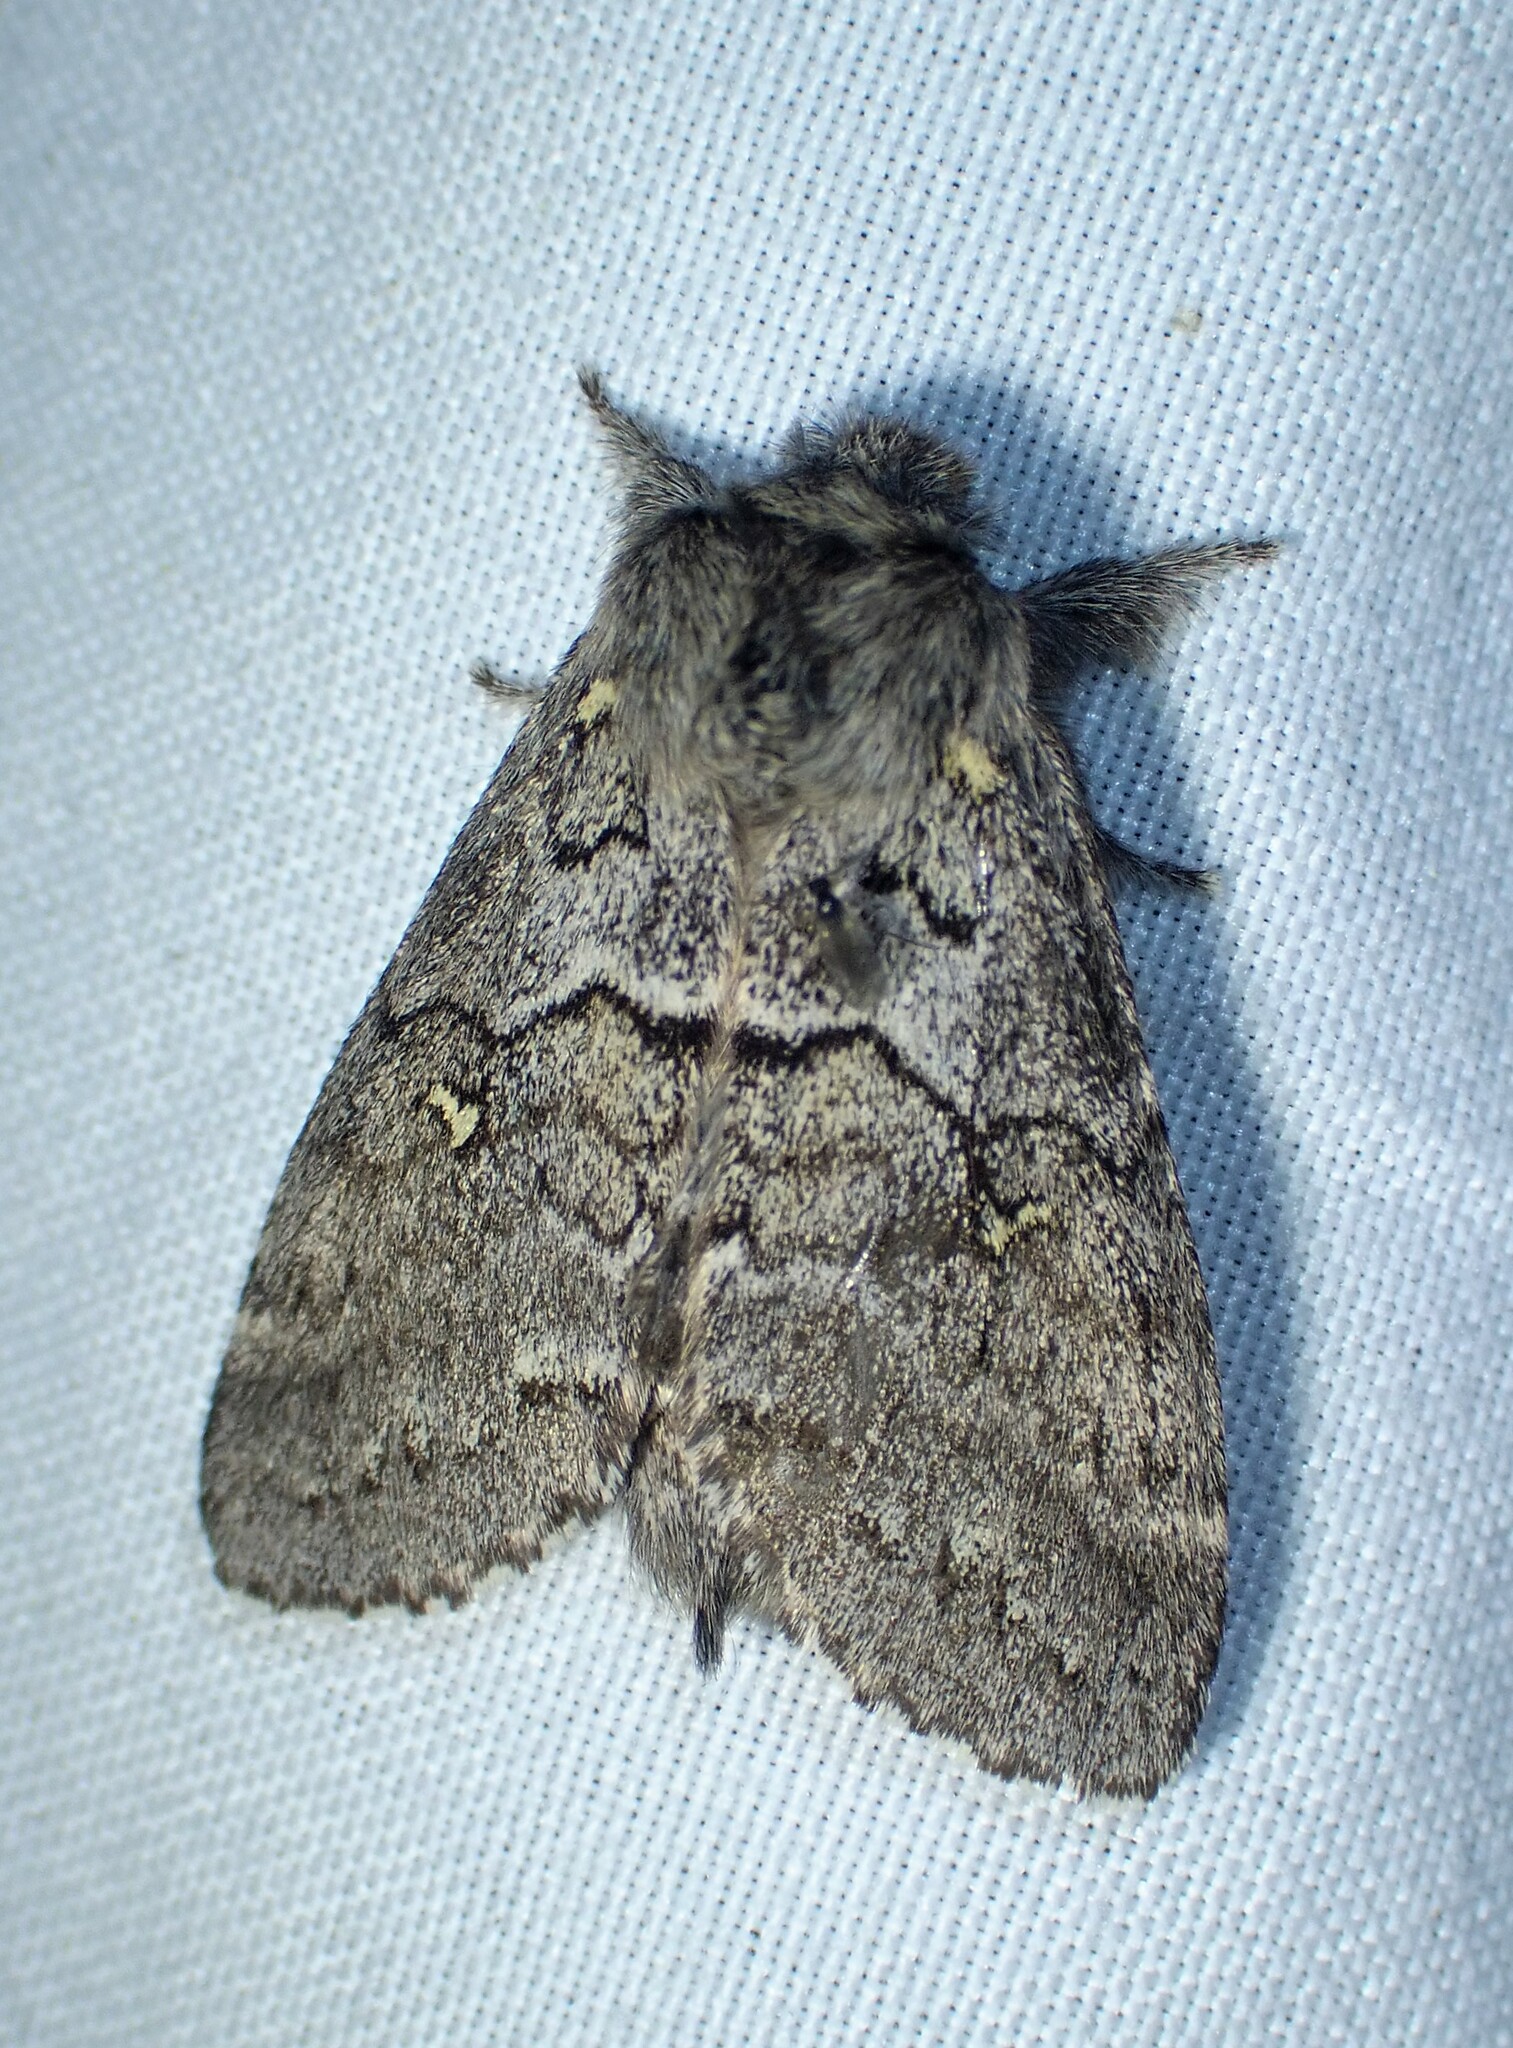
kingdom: Animalia
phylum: Arthropoda
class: Insecta
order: Lepidoptera
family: Notodontidae
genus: Gluphisia
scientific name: Gluphisia avimacula
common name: Four-spotted gluphisia moth
